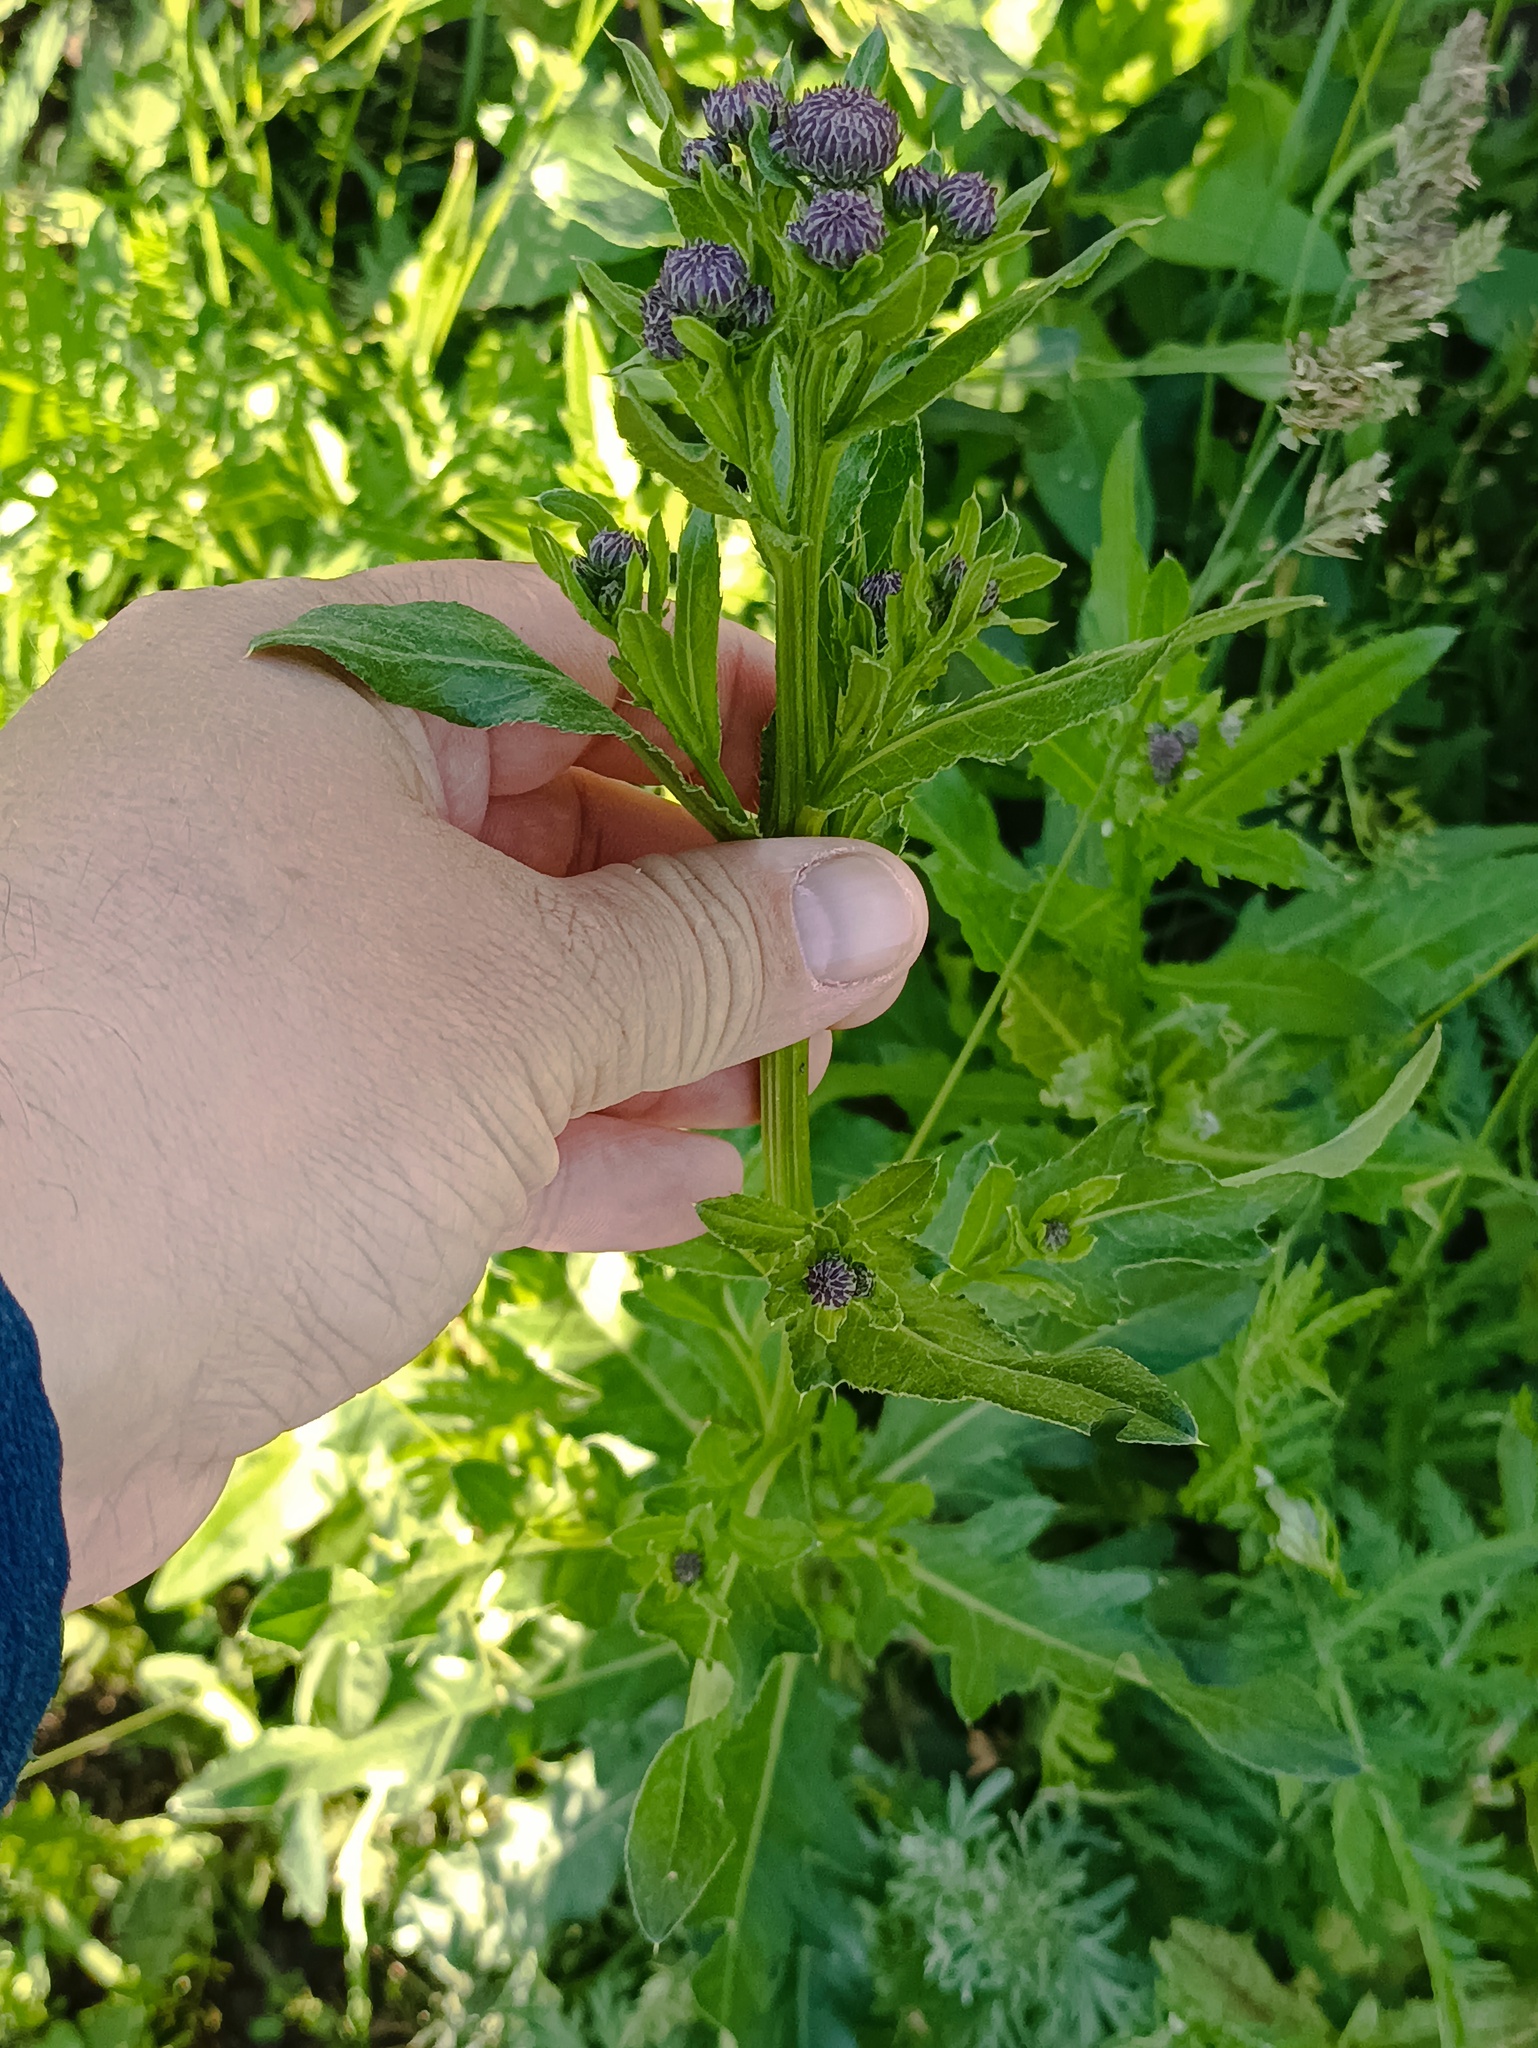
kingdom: Plantae
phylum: Tracheophyta
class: Magnoliopsida
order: Asterales
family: Asteraceae
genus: Cirsium
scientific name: Cirsium arvense
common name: Creeping thistle
